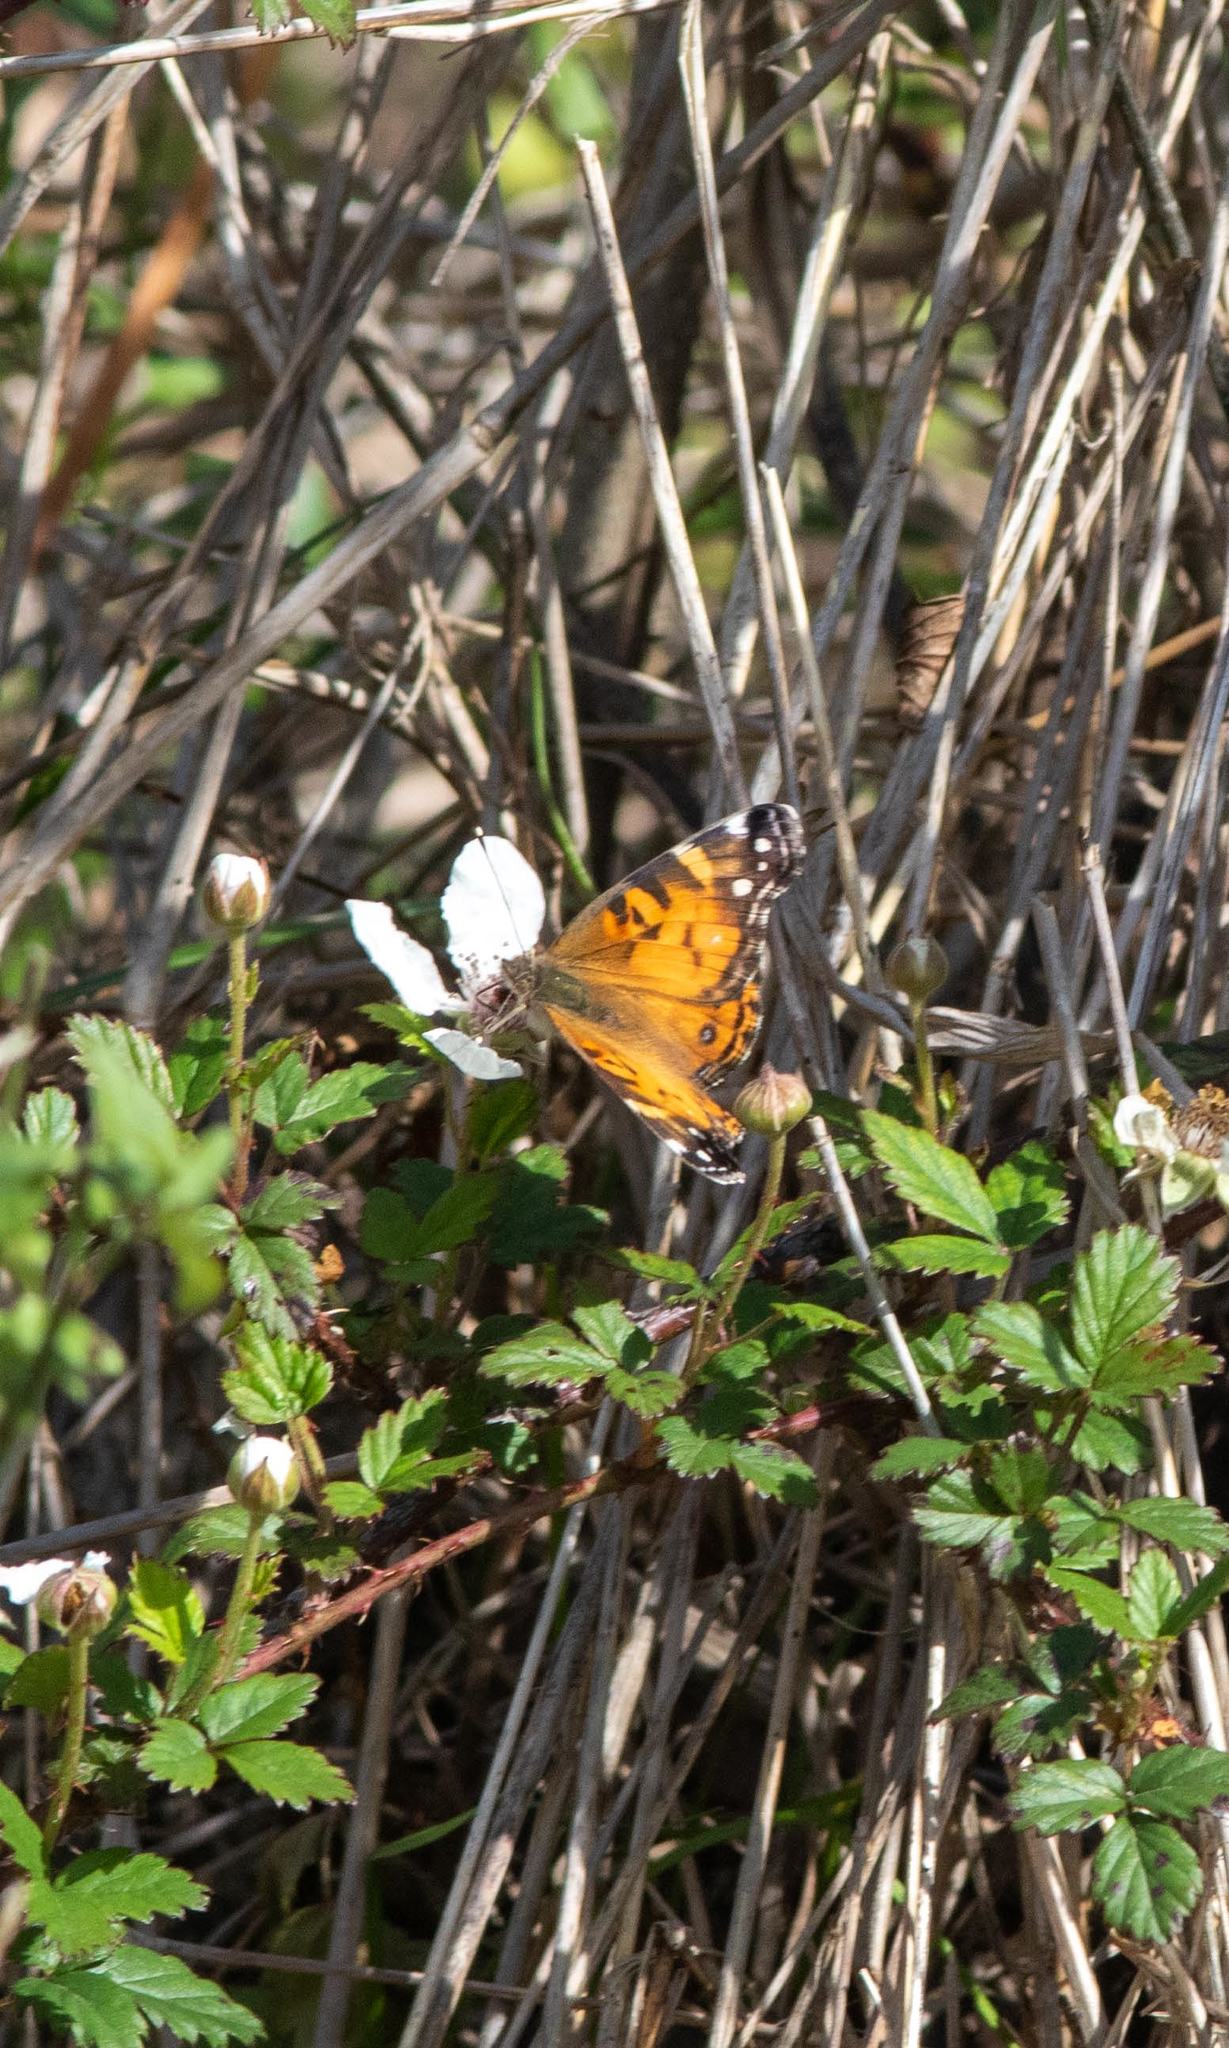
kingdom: Animalia
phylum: Arthropoda
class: Insecta
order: Lepidoptera
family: Nymphalidae
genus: Vanessa
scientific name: Vanessa virginiensis
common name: American lady
